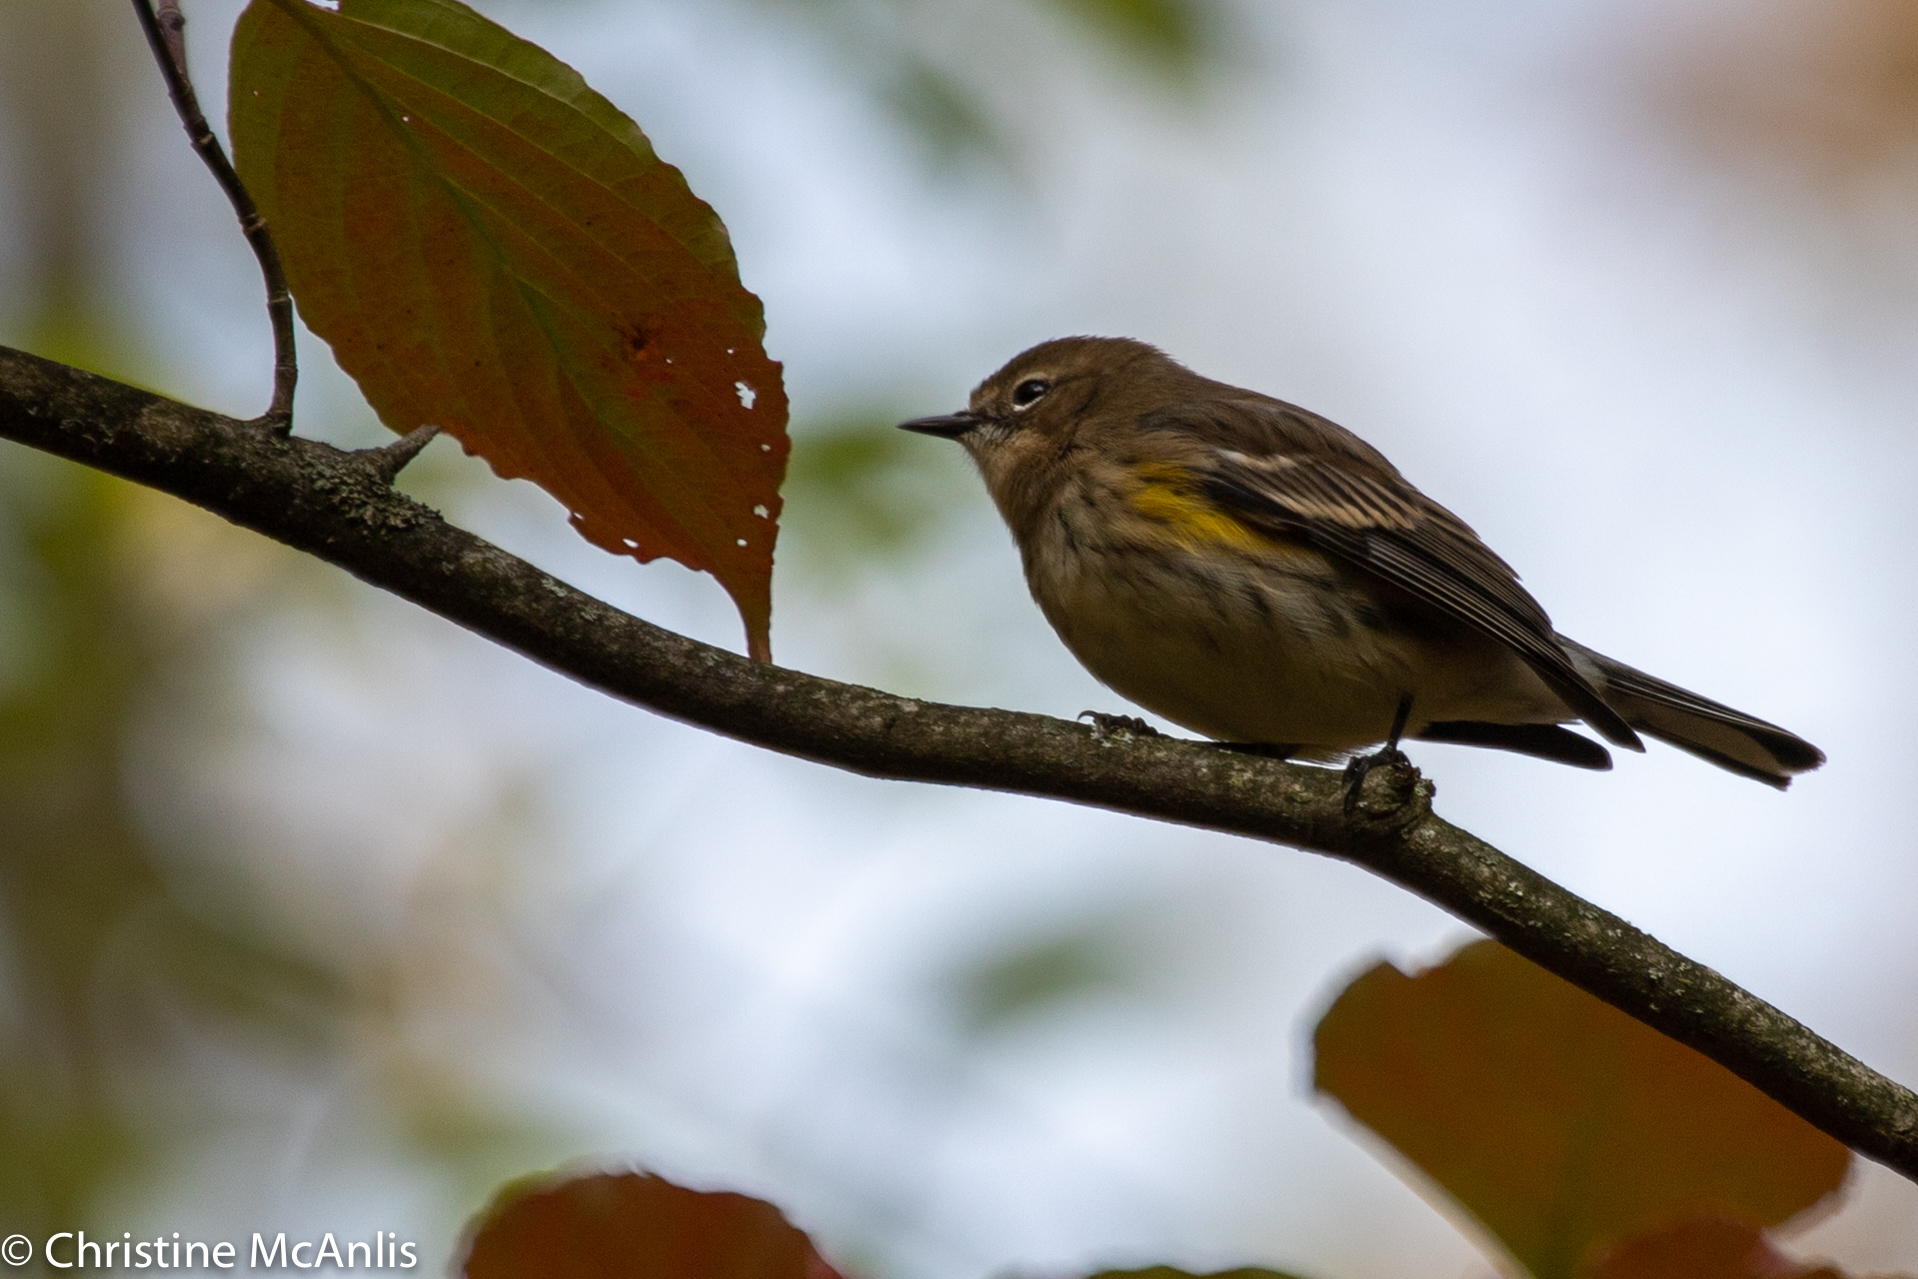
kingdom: Animalia
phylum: Chordata
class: Aves
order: Passeriformes
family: Parulidae
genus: Setophaga
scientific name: Setophaga coronata
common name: Myrtle warbler
